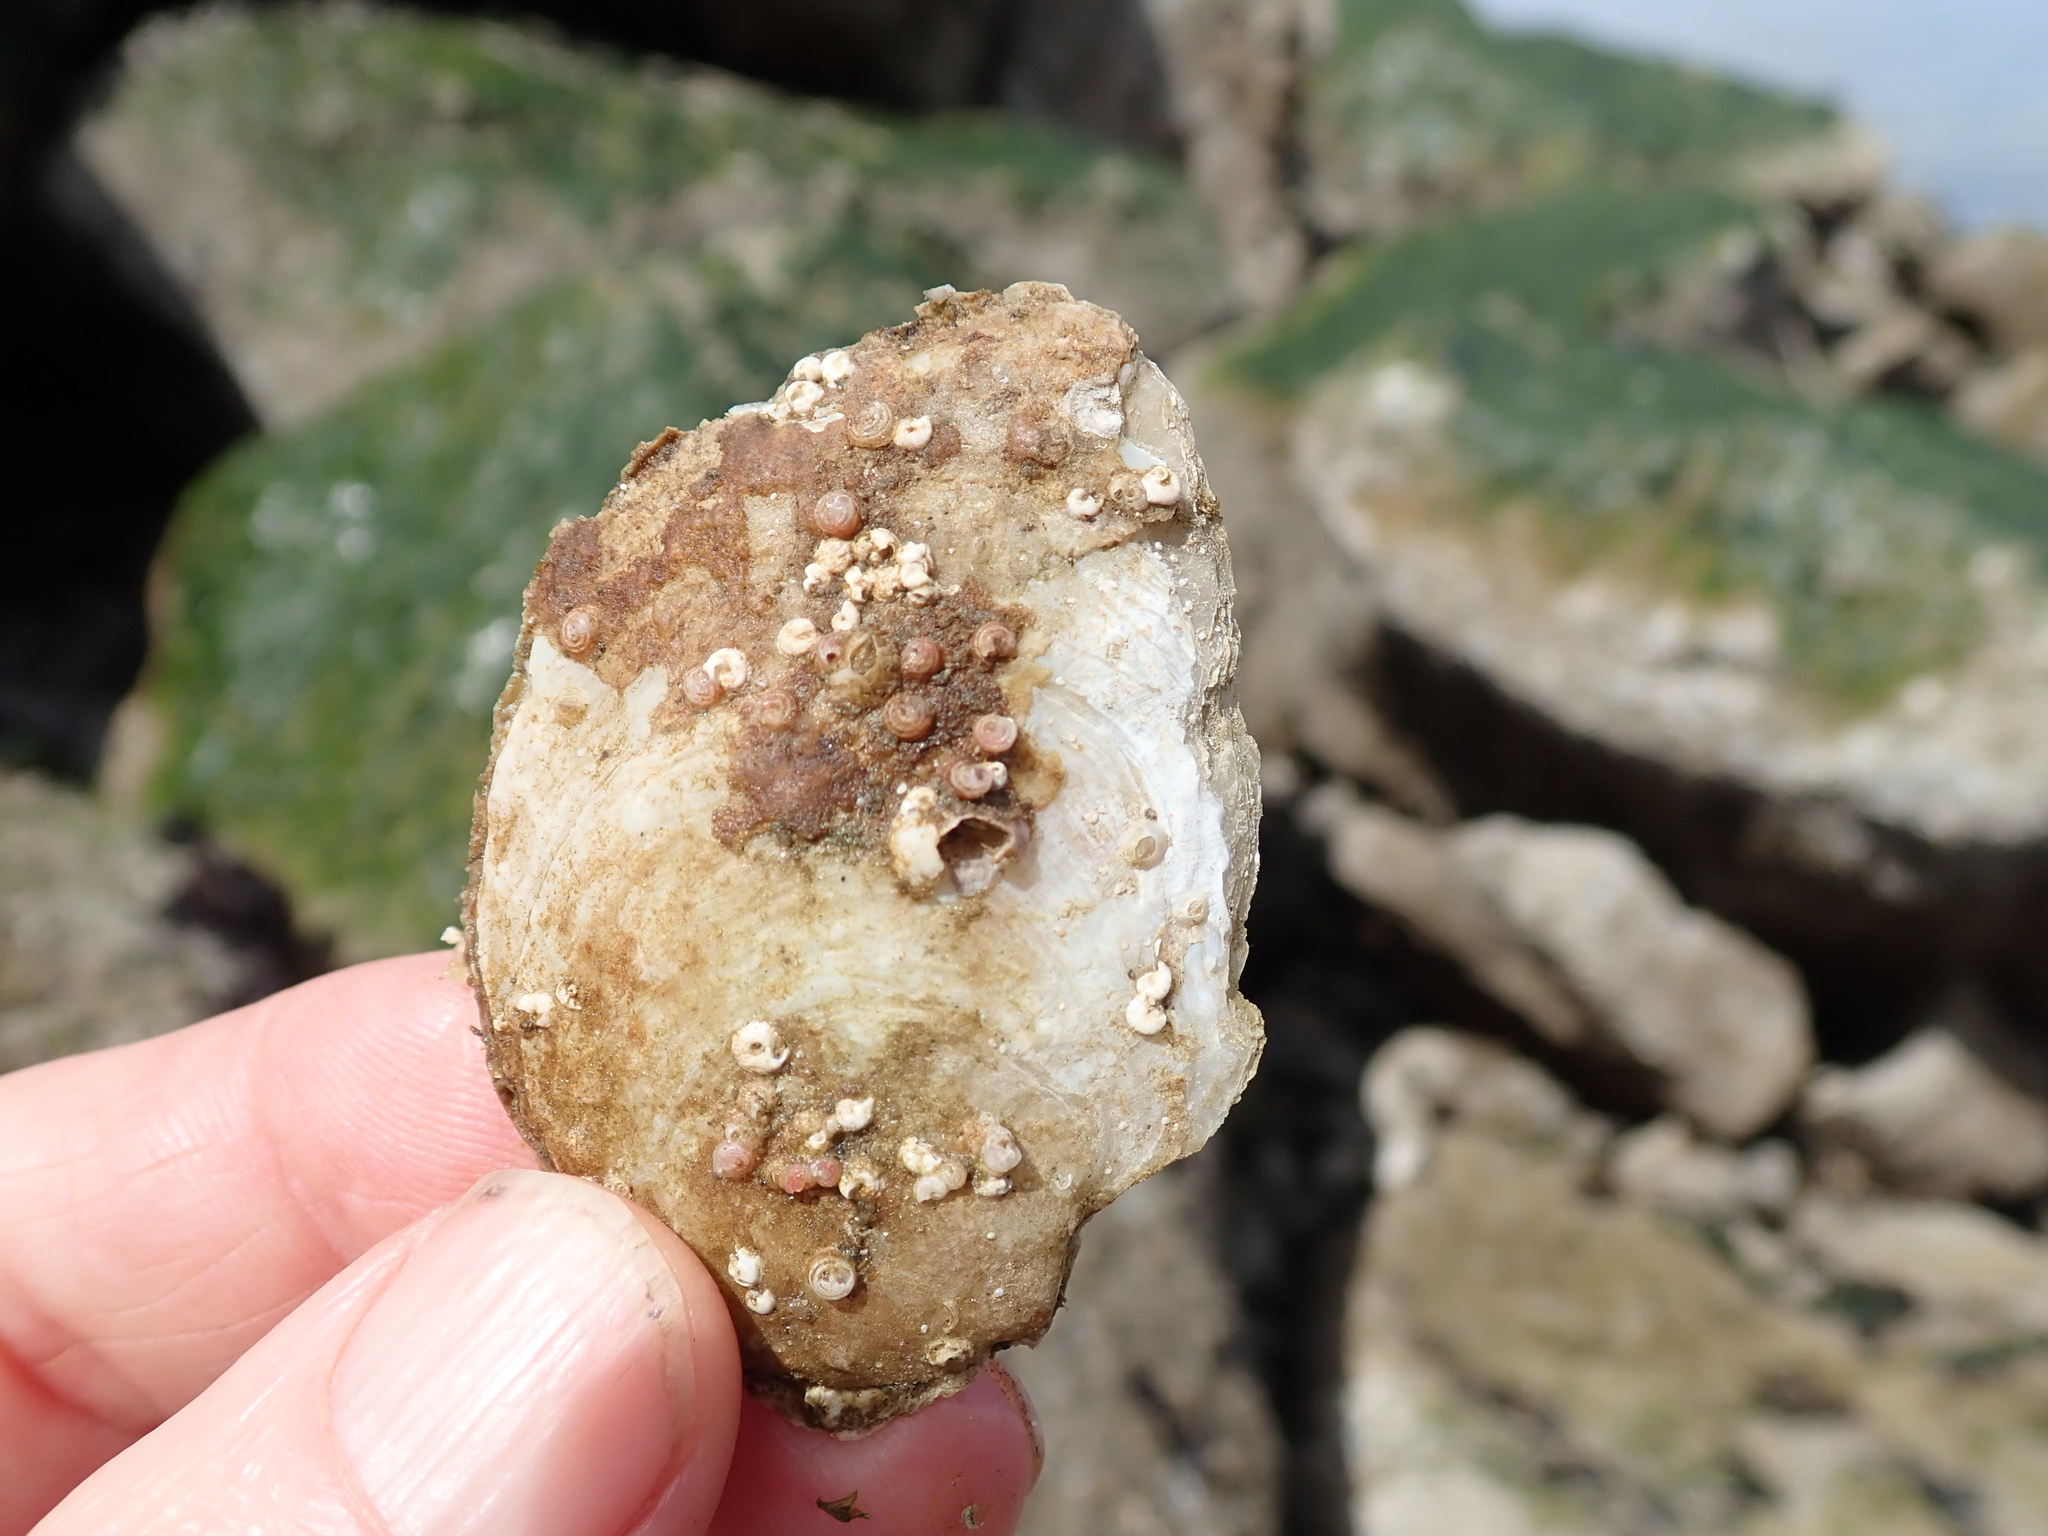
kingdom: Animalia
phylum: Mollusca
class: Bivalvia
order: Pectinida
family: Anomiidae
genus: Pododesmus
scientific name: Pododesmus macrochisma
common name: Alaska jingle
